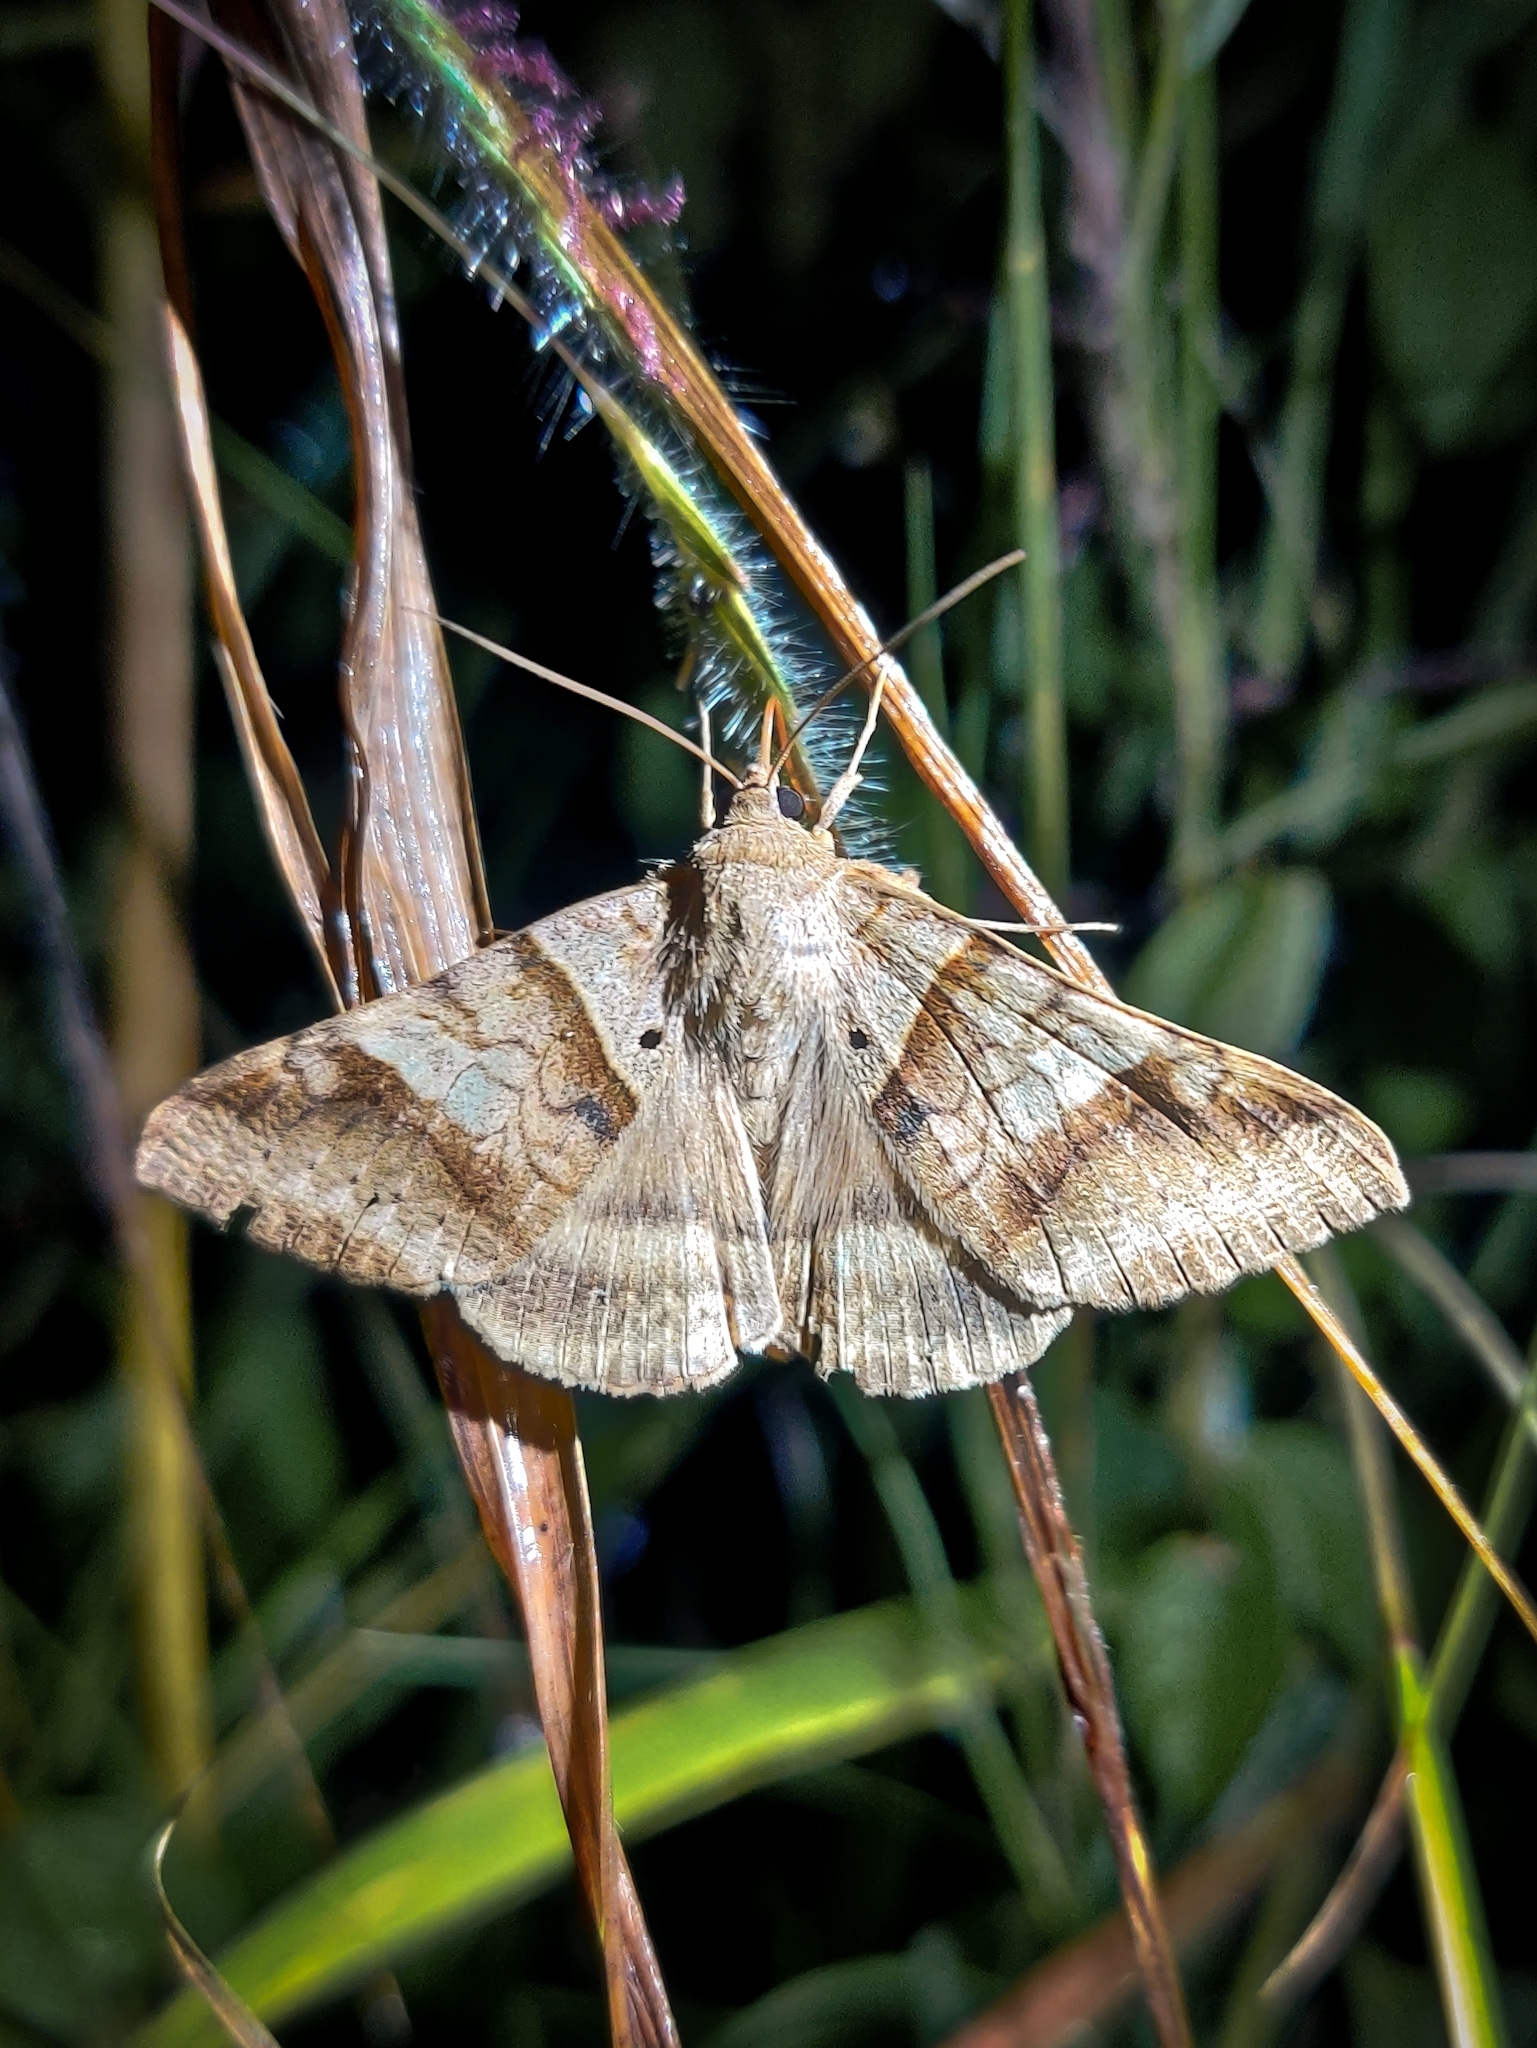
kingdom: Animalia
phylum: Arthropoda
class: Insecta
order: Lepidoptera
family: Erebidae
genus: Mocis
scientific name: Mocis undata
